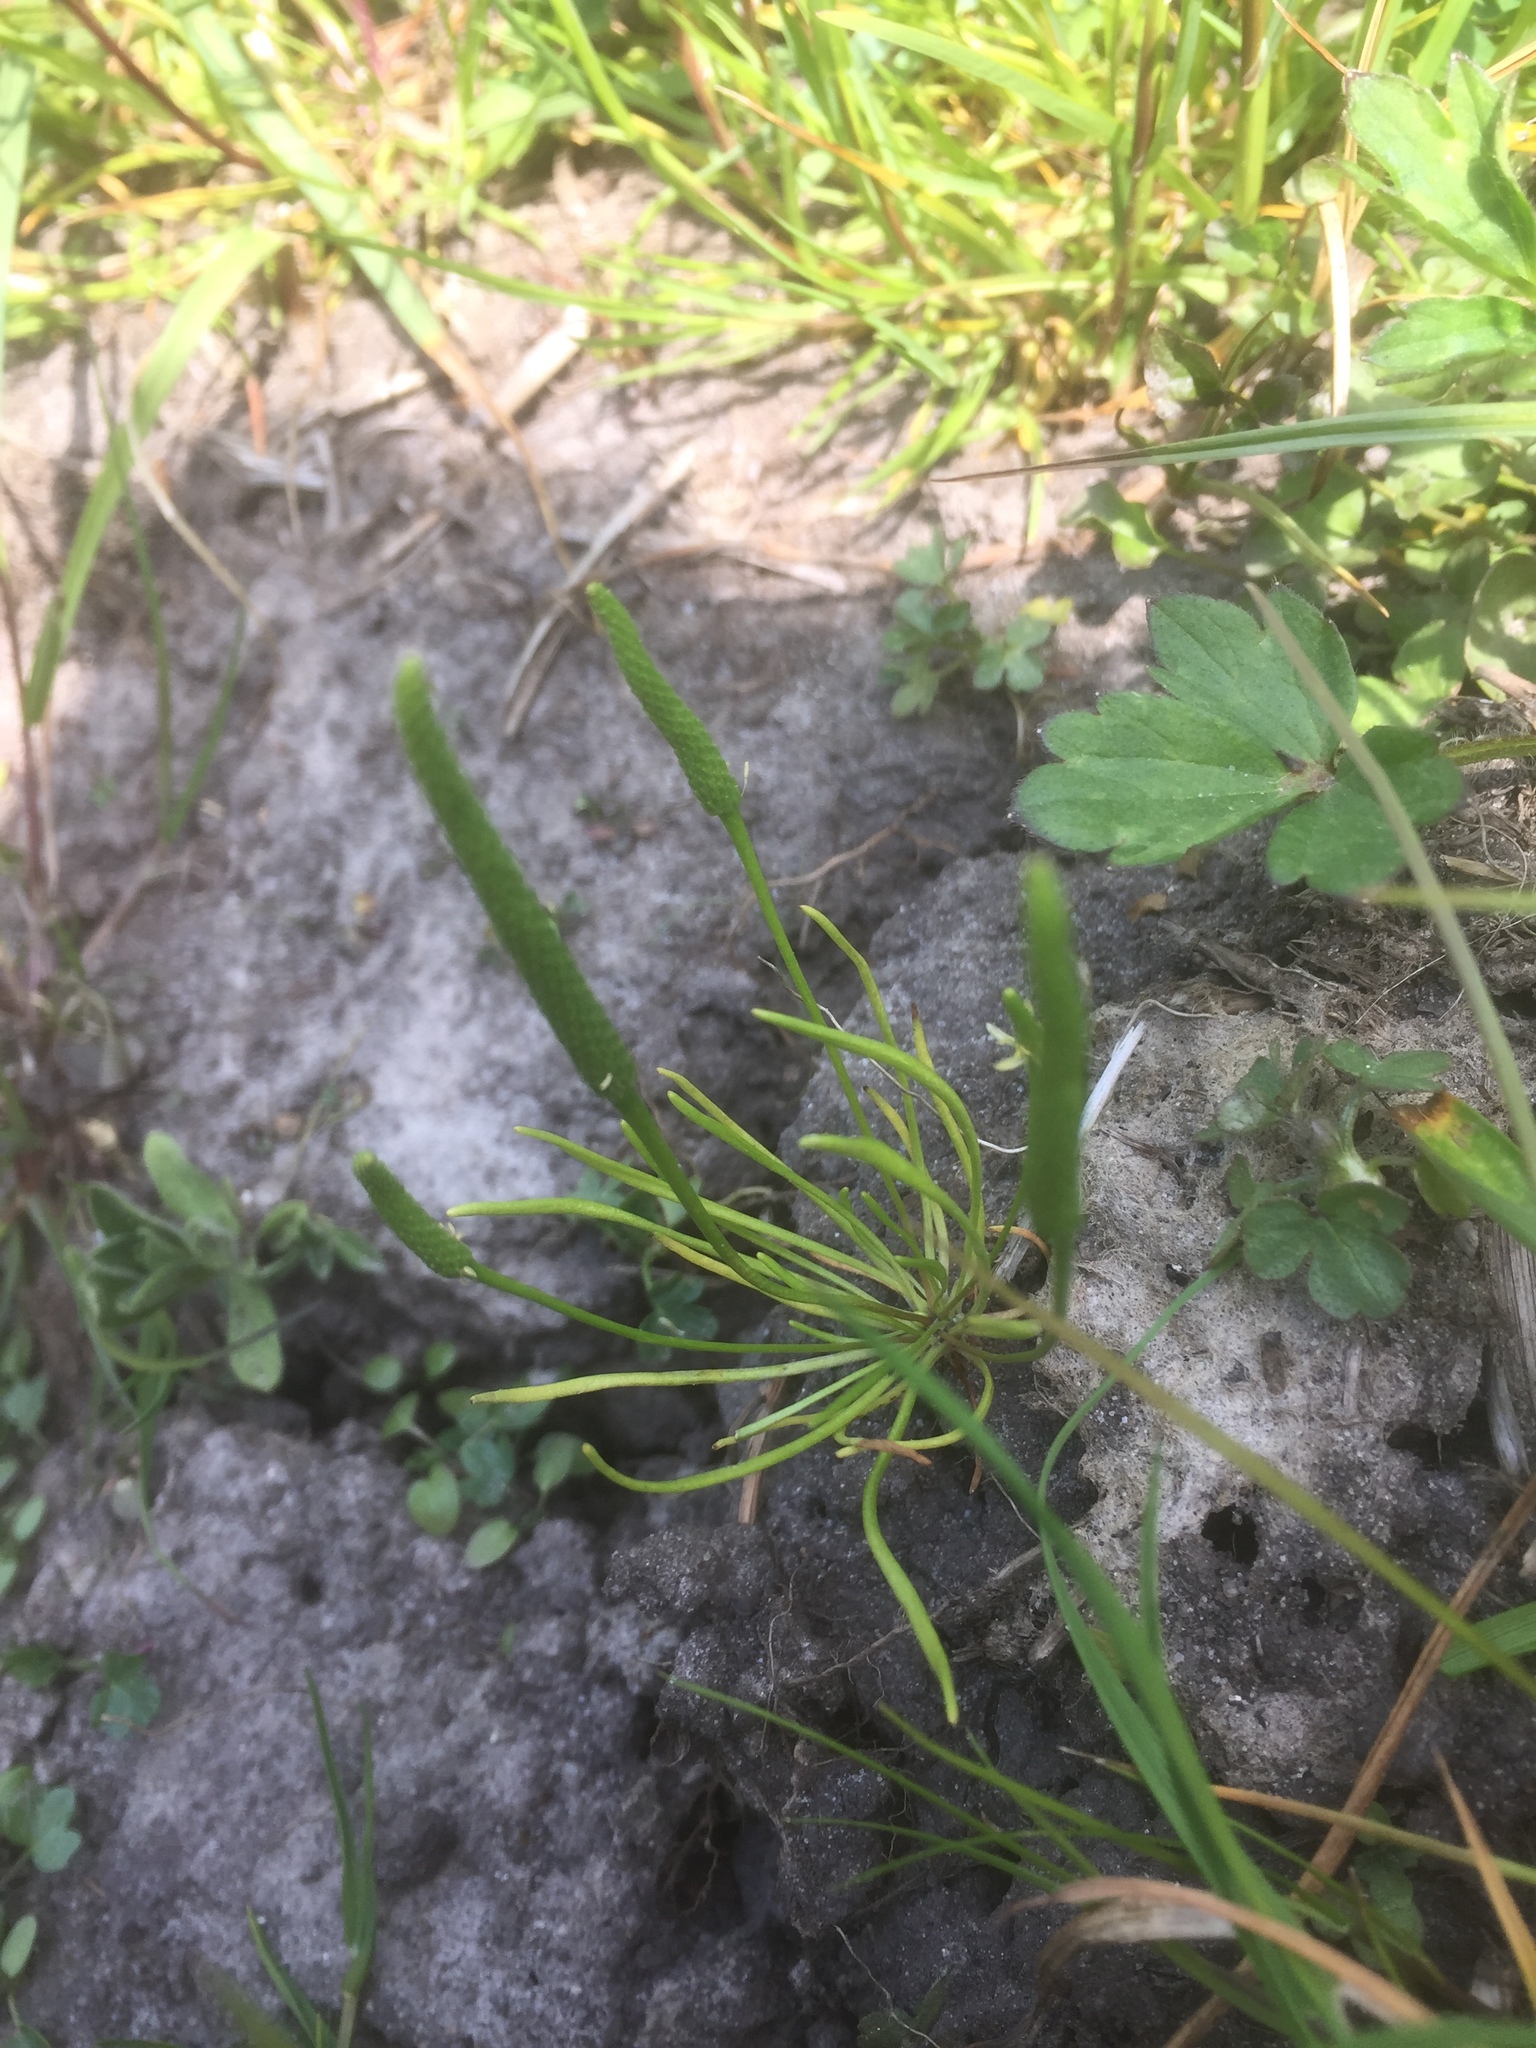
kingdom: Plantae
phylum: Tracheophyta
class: Magnoliopsida
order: Ranunculales
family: Ranunculaceae
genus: Myosurus
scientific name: Myosurus minimus
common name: Mousetail
